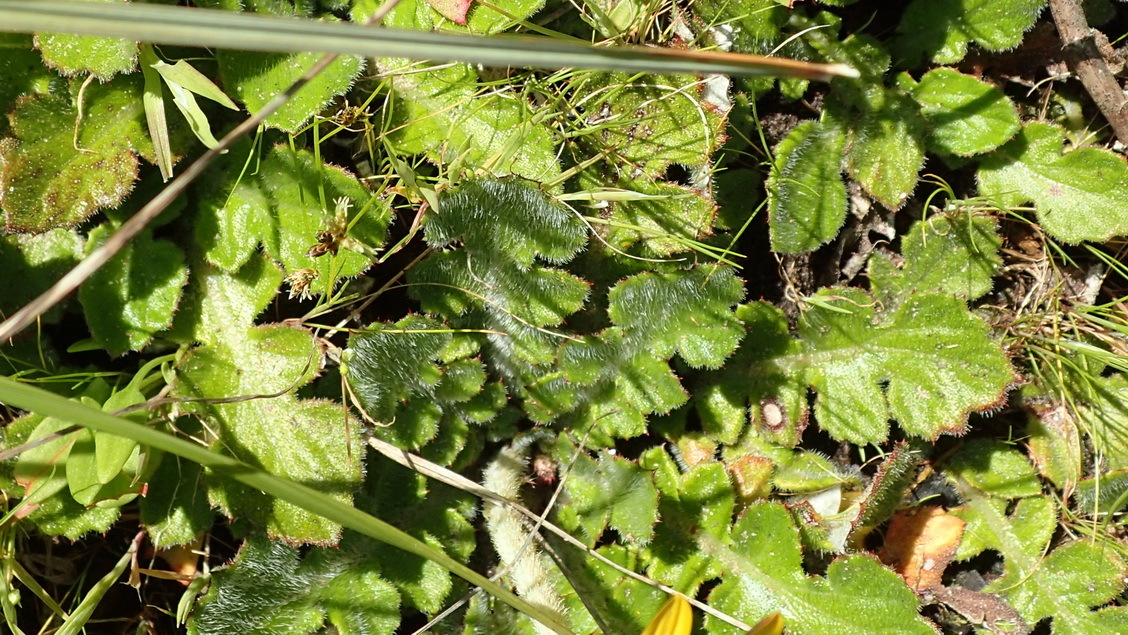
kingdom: Plantae
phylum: Tracheophyta
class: Magnoliopsida
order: Asterales
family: Asteraceae
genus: Arctotheca
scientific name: Arctotheca prostrata
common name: Capeweed
